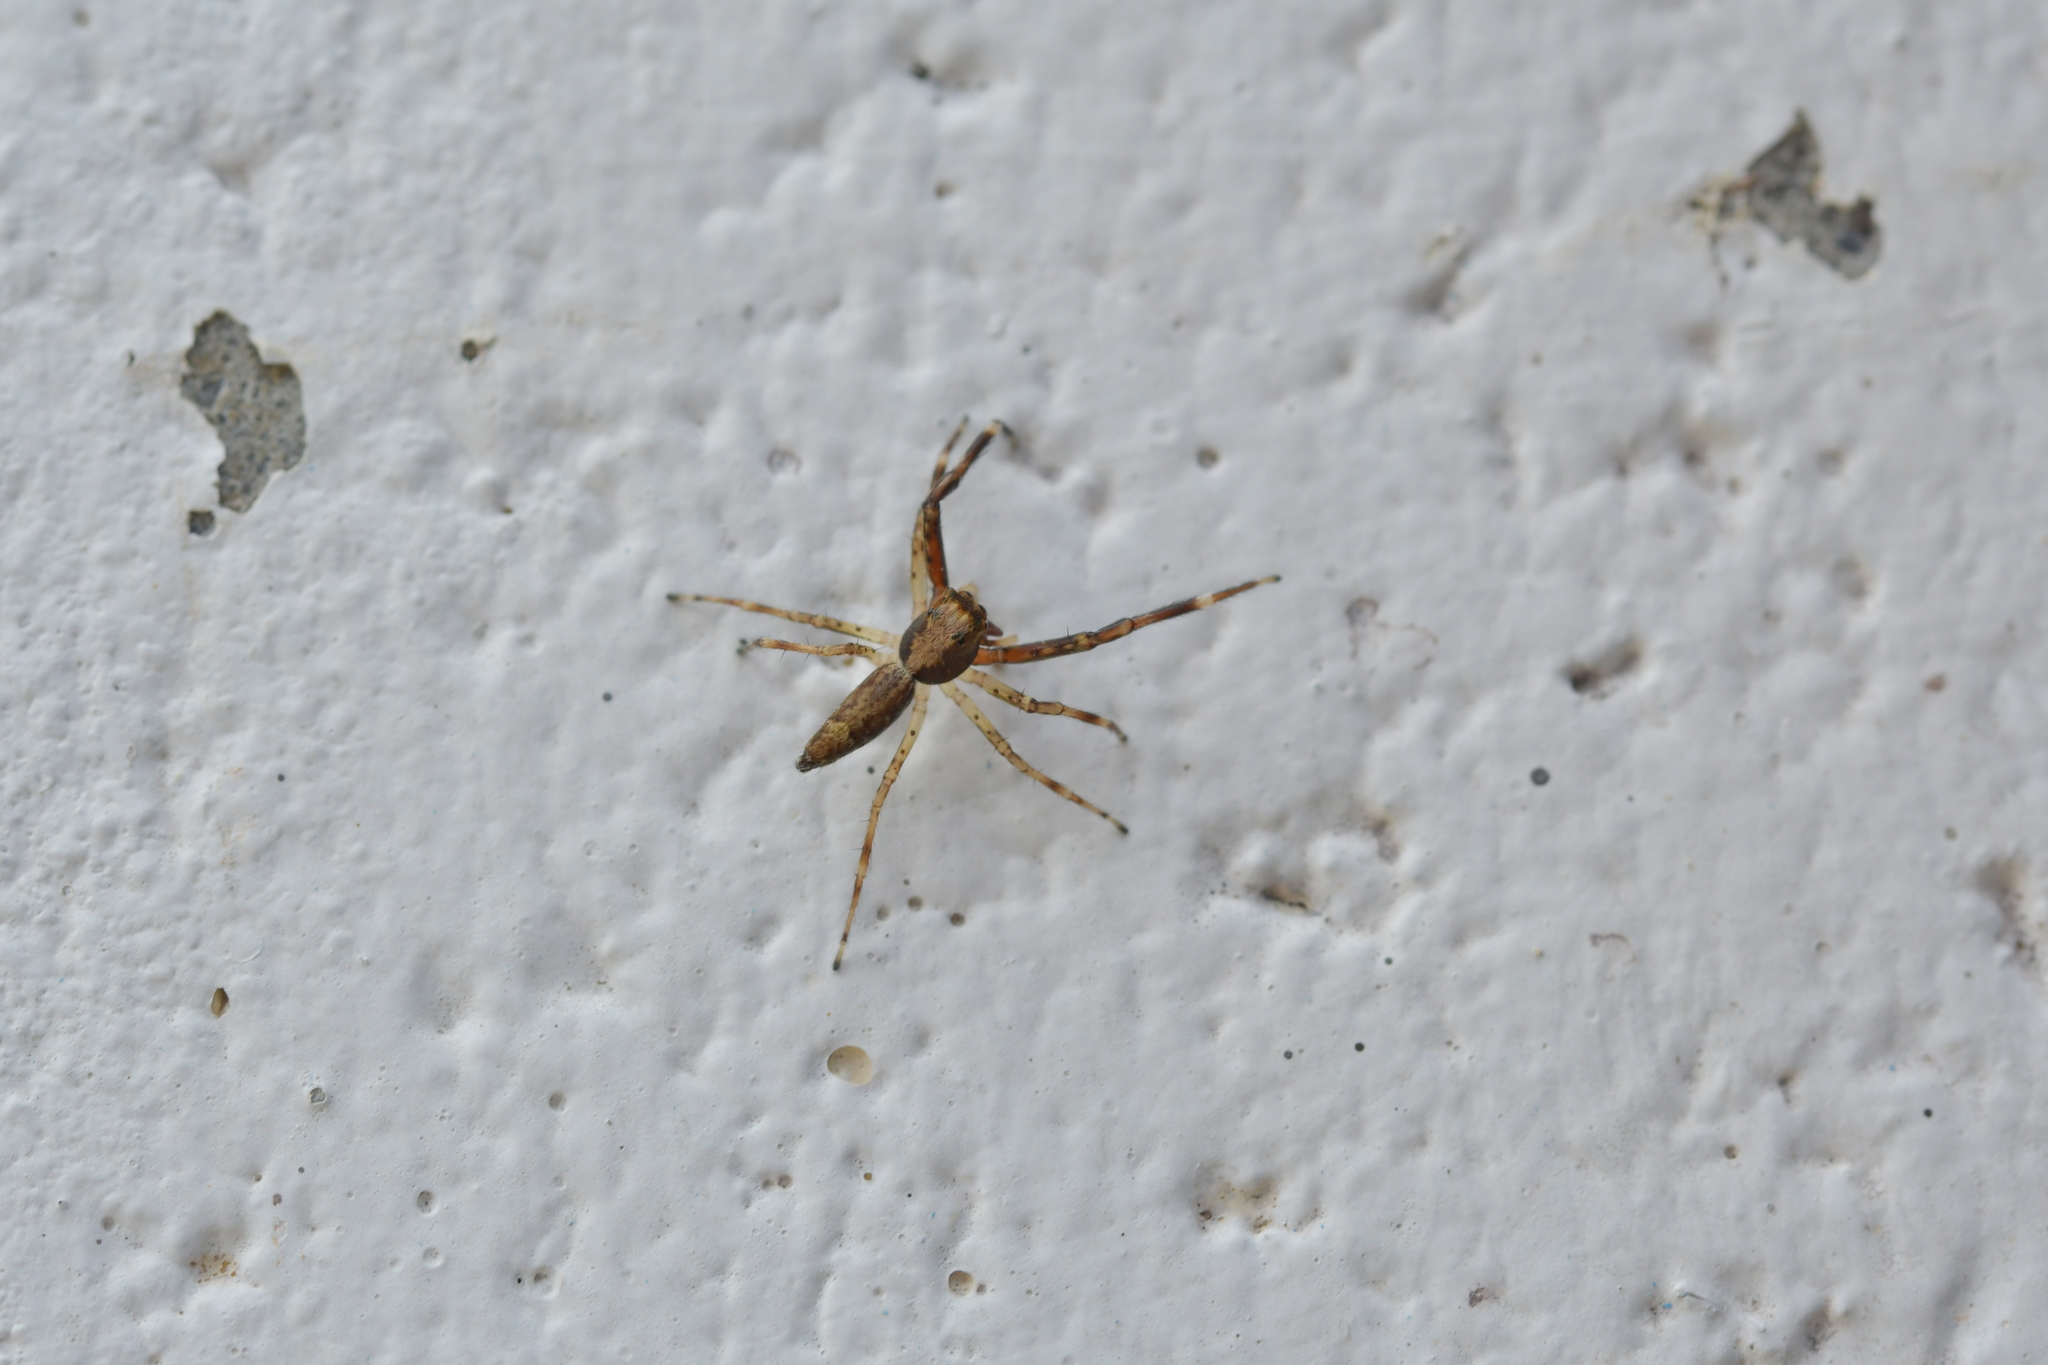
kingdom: Animalia
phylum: Arthropoda
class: Arachnida
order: Araneae
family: Salticidae
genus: Helpis
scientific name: Helpis minitabunda
